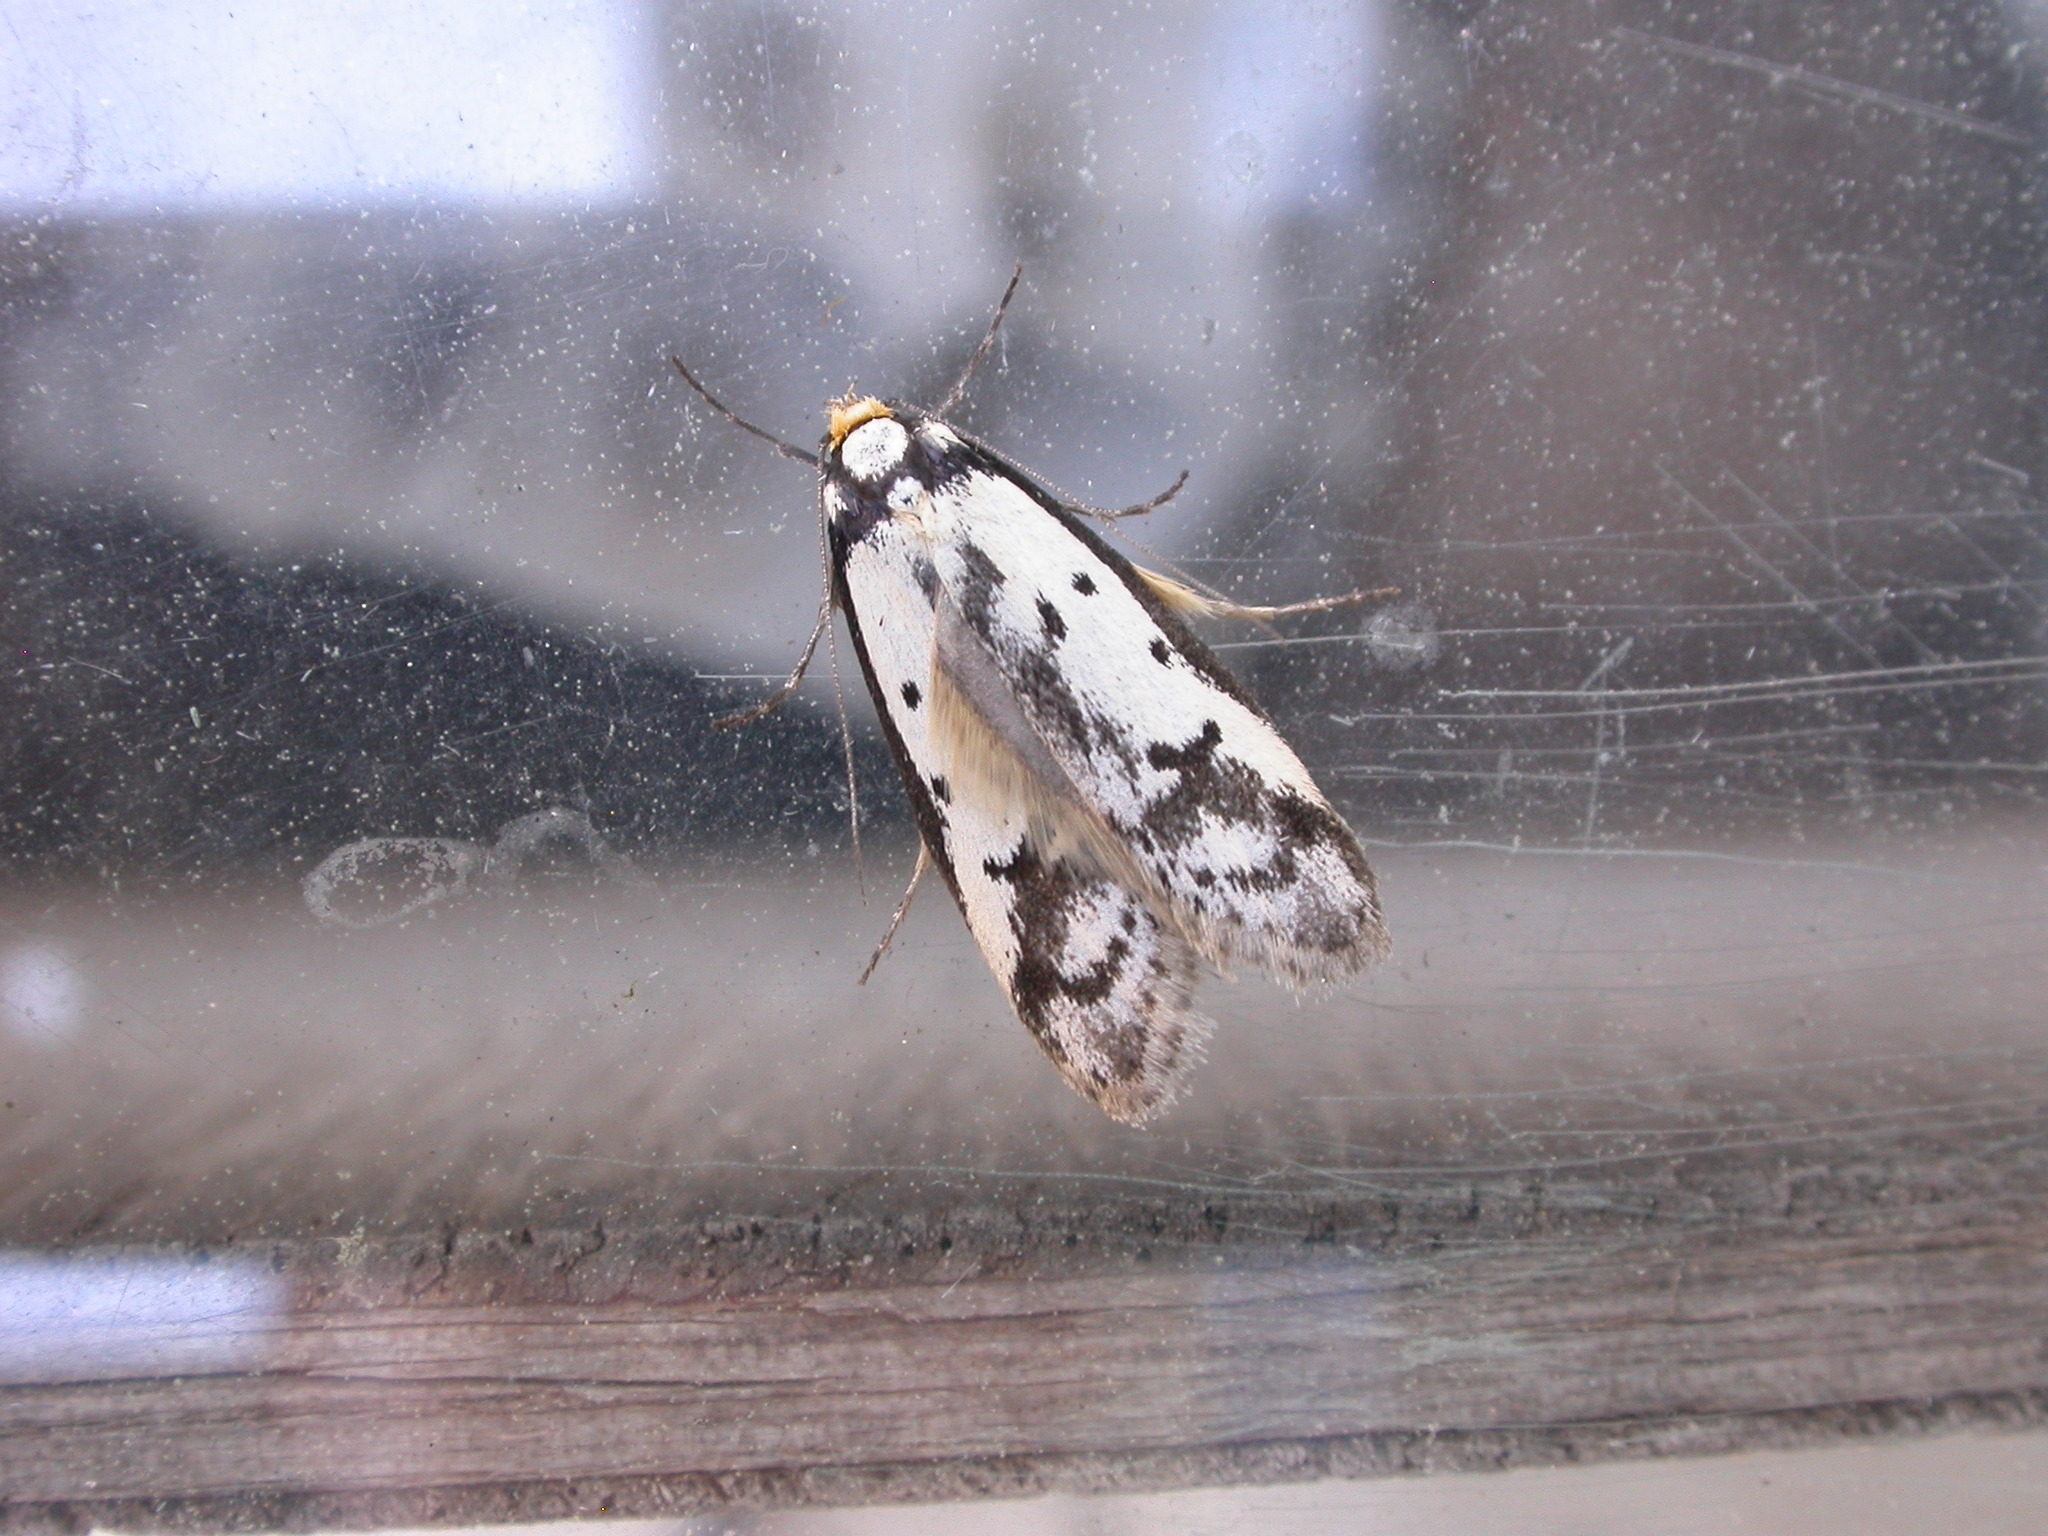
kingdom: Animalia
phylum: Arthropoda
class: Insecta
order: Lepidoptera
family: Oecophoridae
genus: Philobota
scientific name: Philobota lysizona
